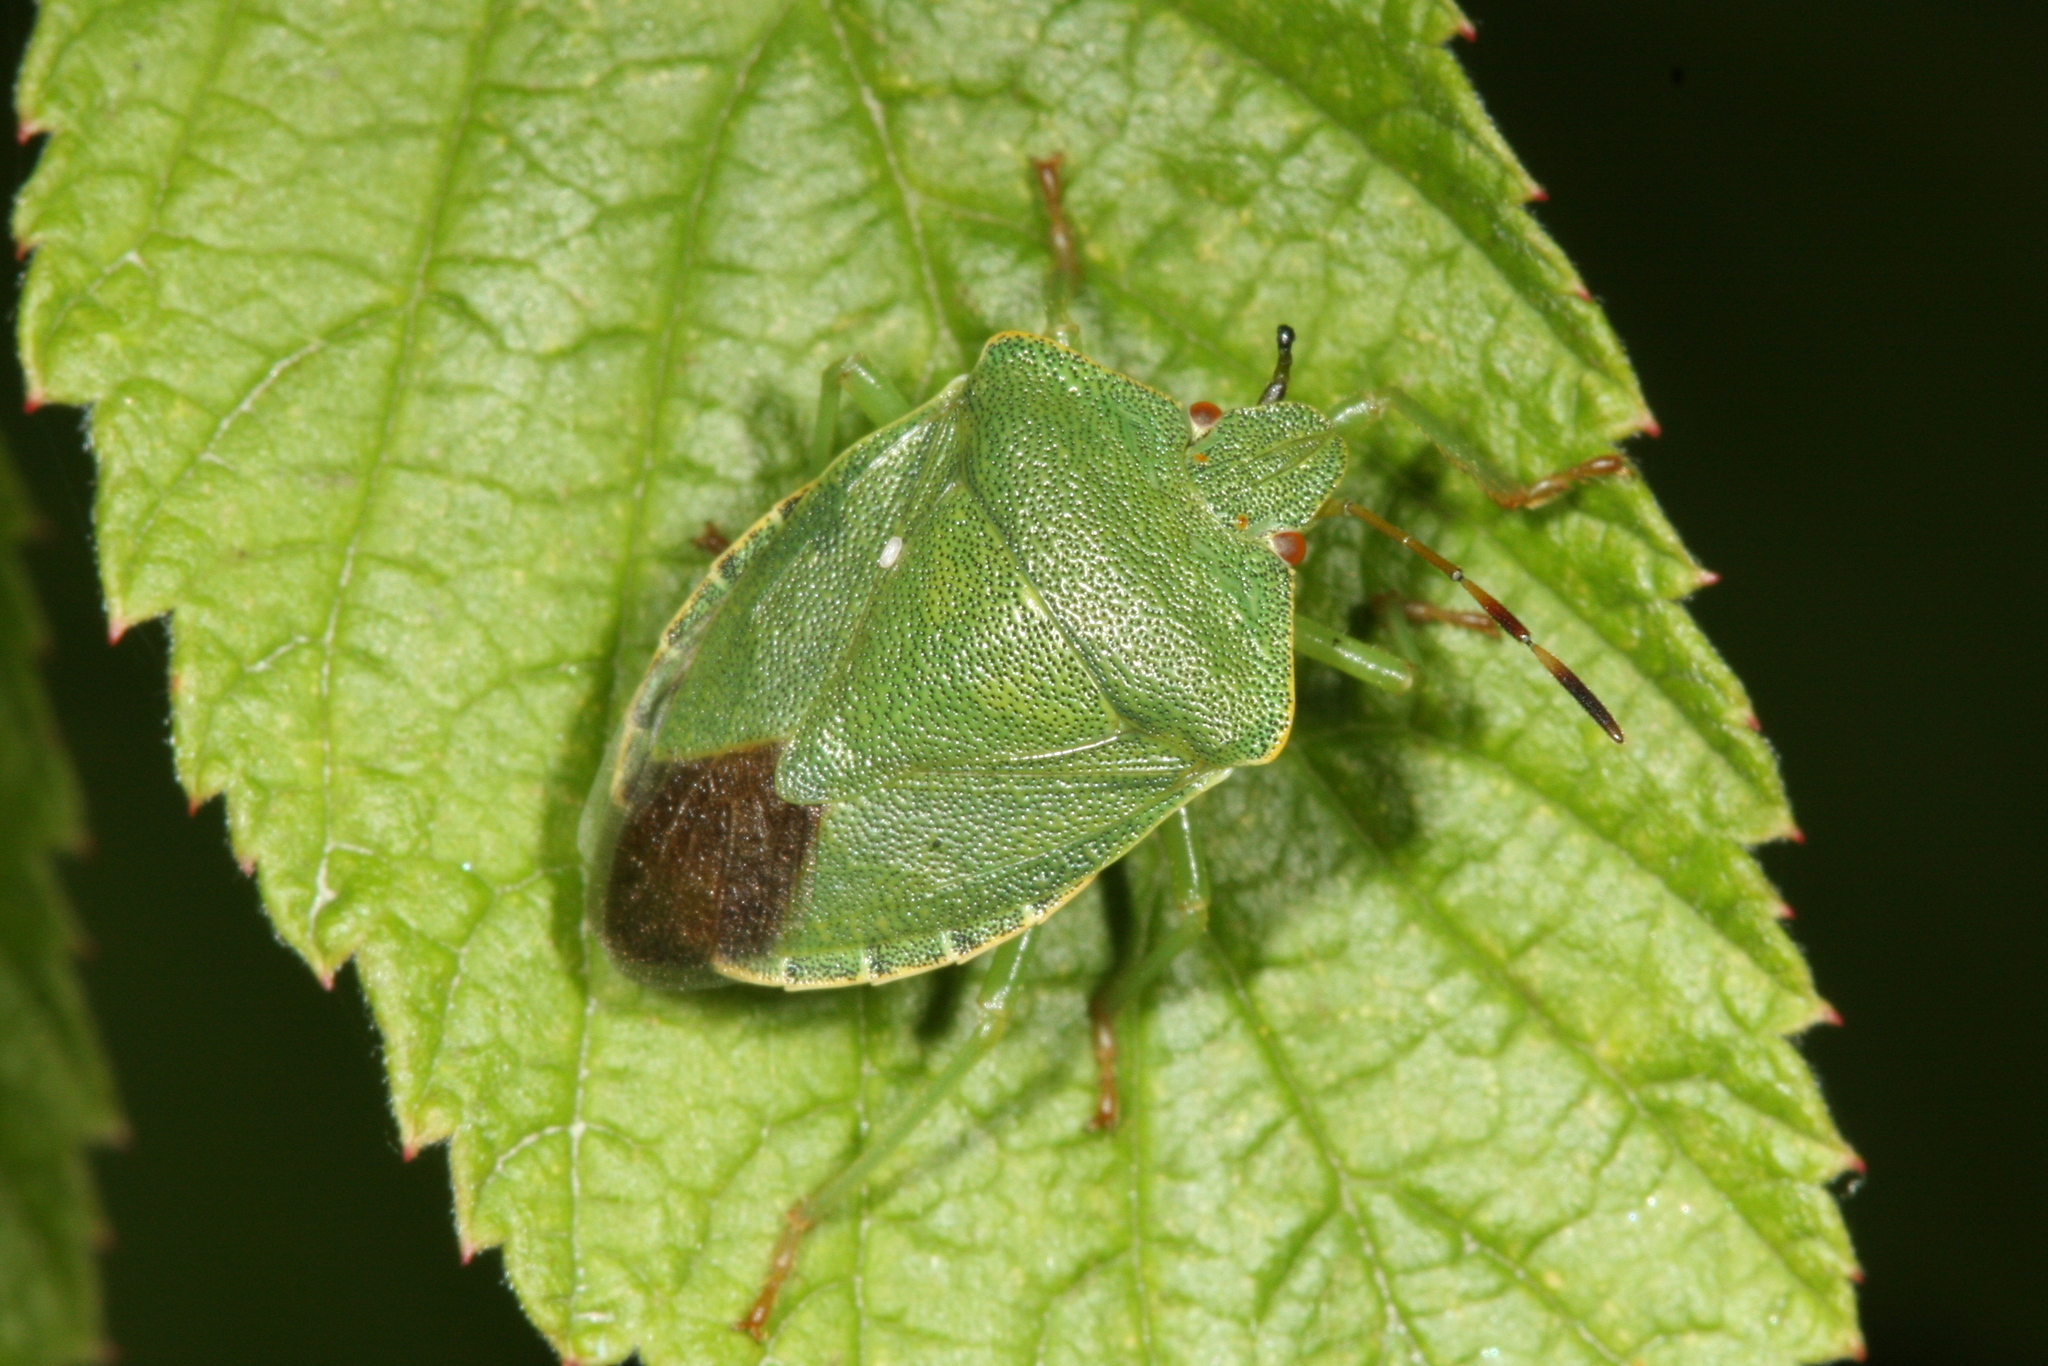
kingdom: Animalia
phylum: Arthropoda
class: Insecta
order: Hemiptera
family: Pentatomidae
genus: Palomena
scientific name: Palomena prasina
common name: Green shieldbug
